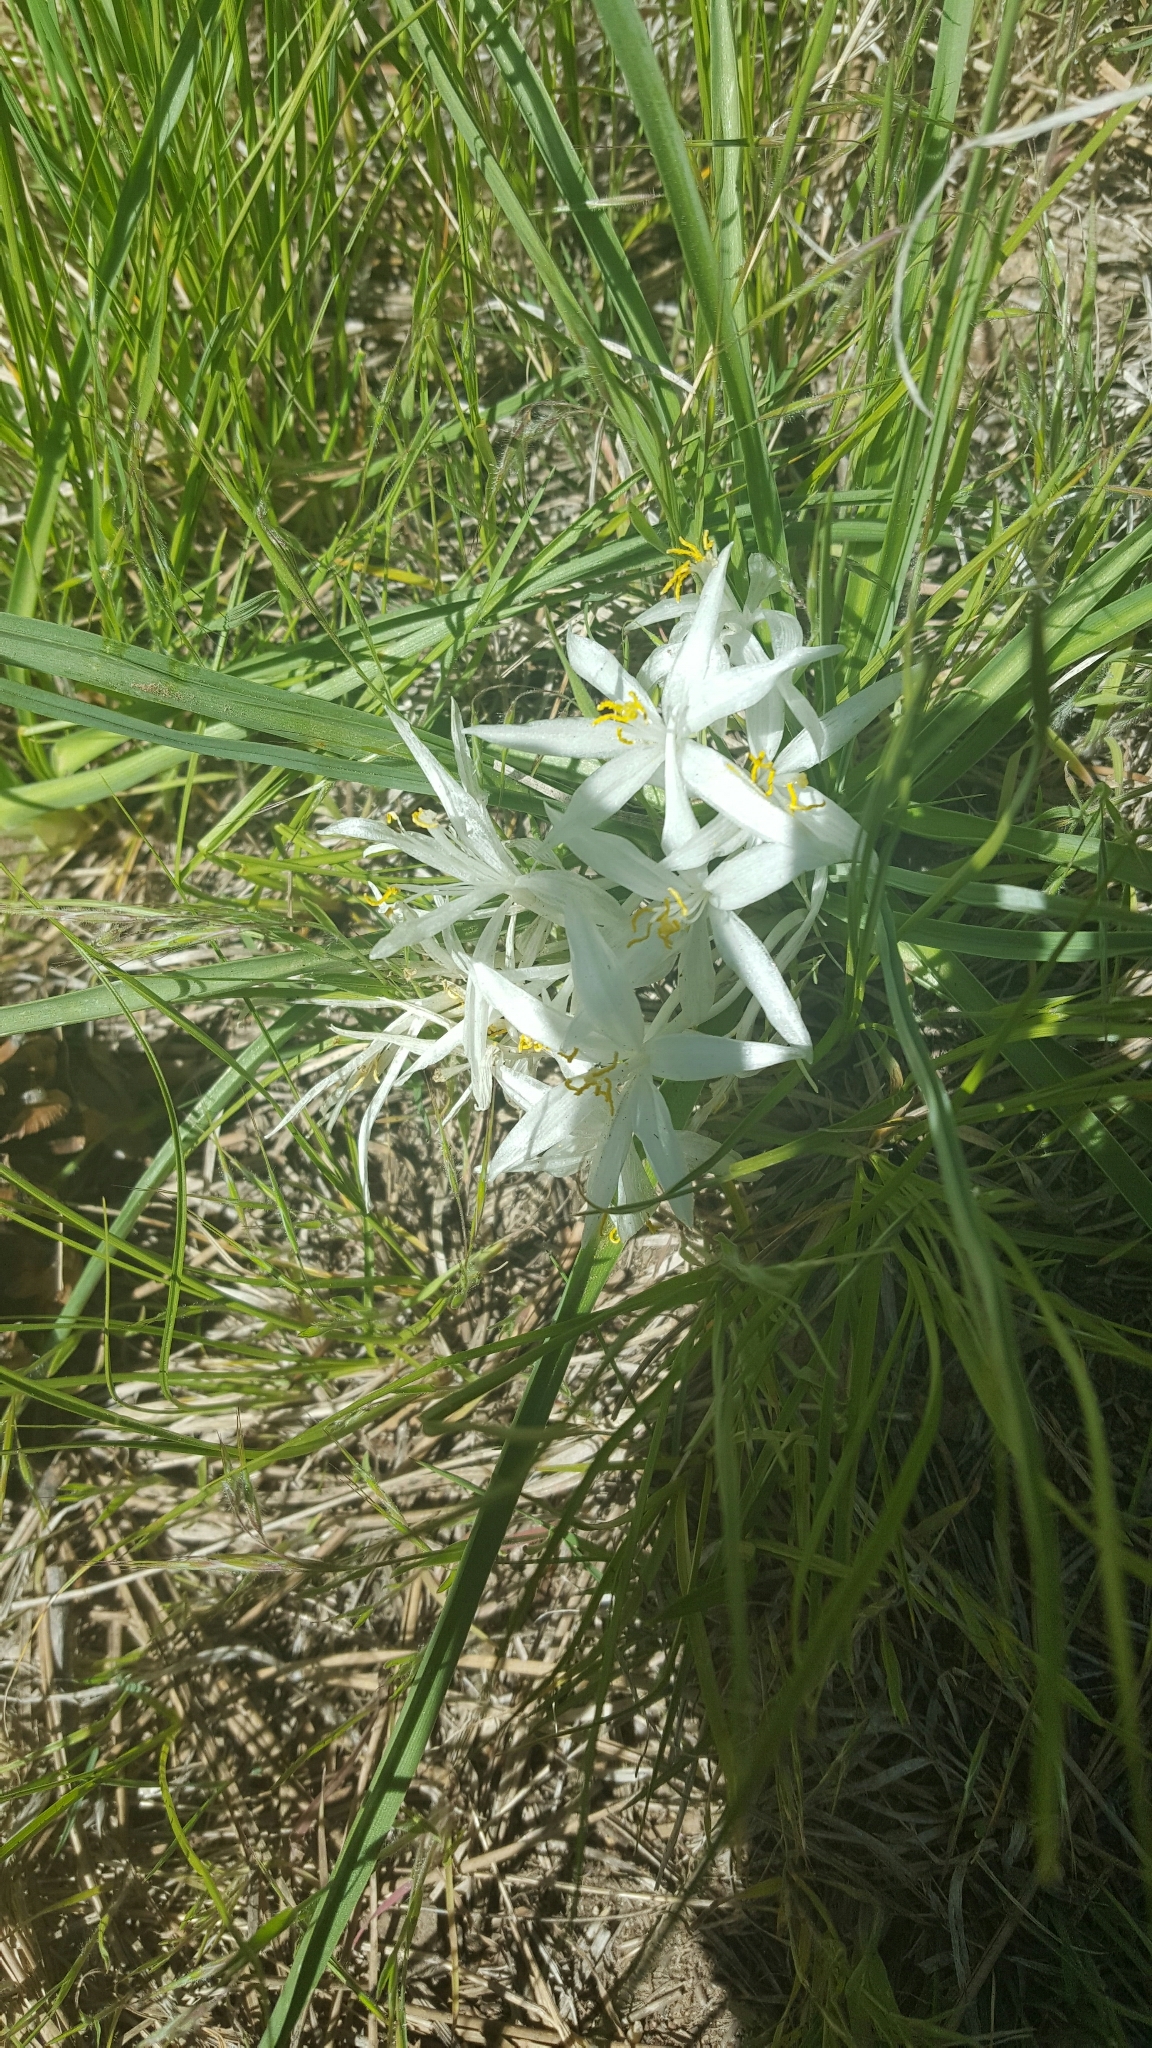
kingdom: Plantae
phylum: Tracheophyta
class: Liliopsida
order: Asparagales
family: Asparagaceae
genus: Leucocrinum
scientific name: Leucocrinum montanum
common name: Mountain-lily
